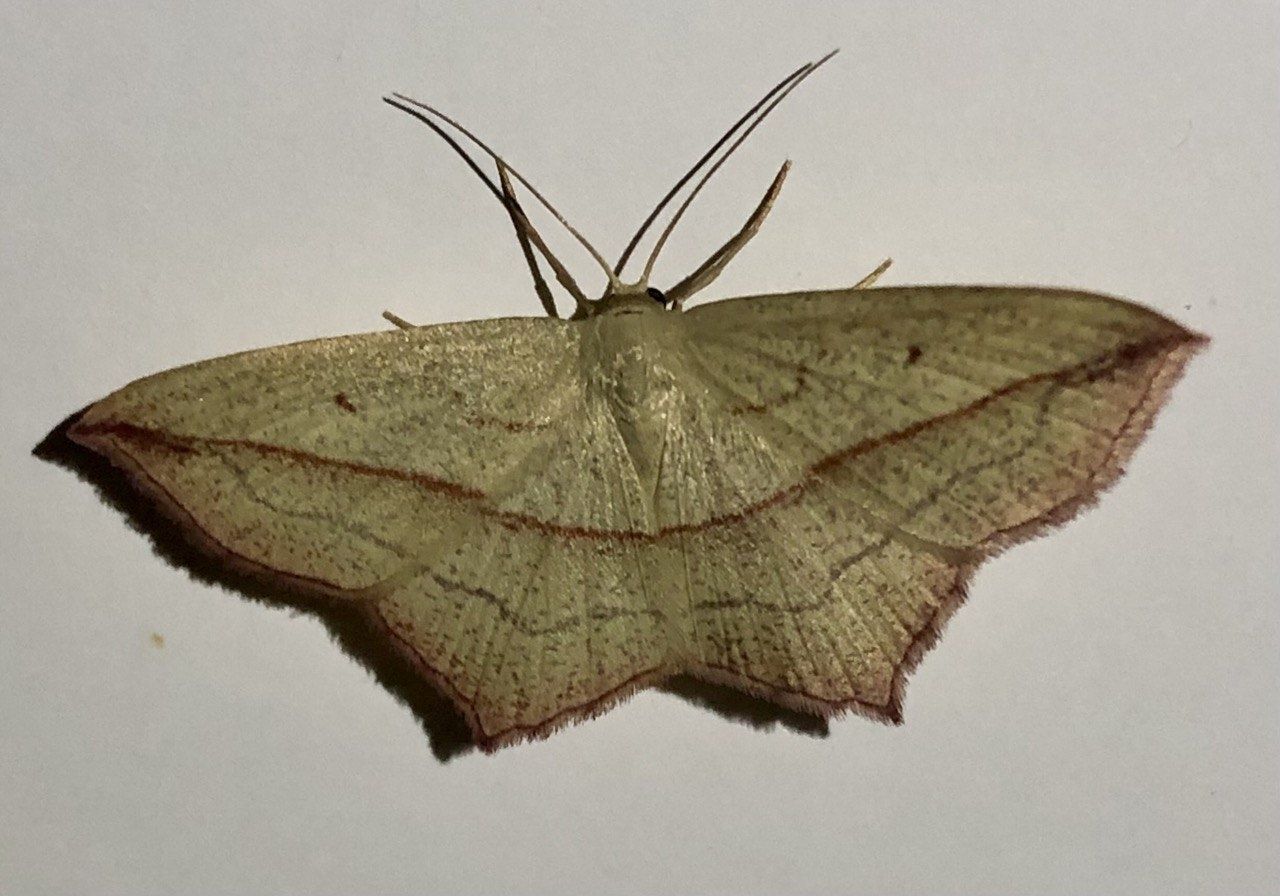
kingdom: Animalia
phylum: Arthropoda
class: Insecta
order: Lepidoptera
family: Geometridae
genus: Timandra
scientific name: Timandra comae
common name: Blood-vein
